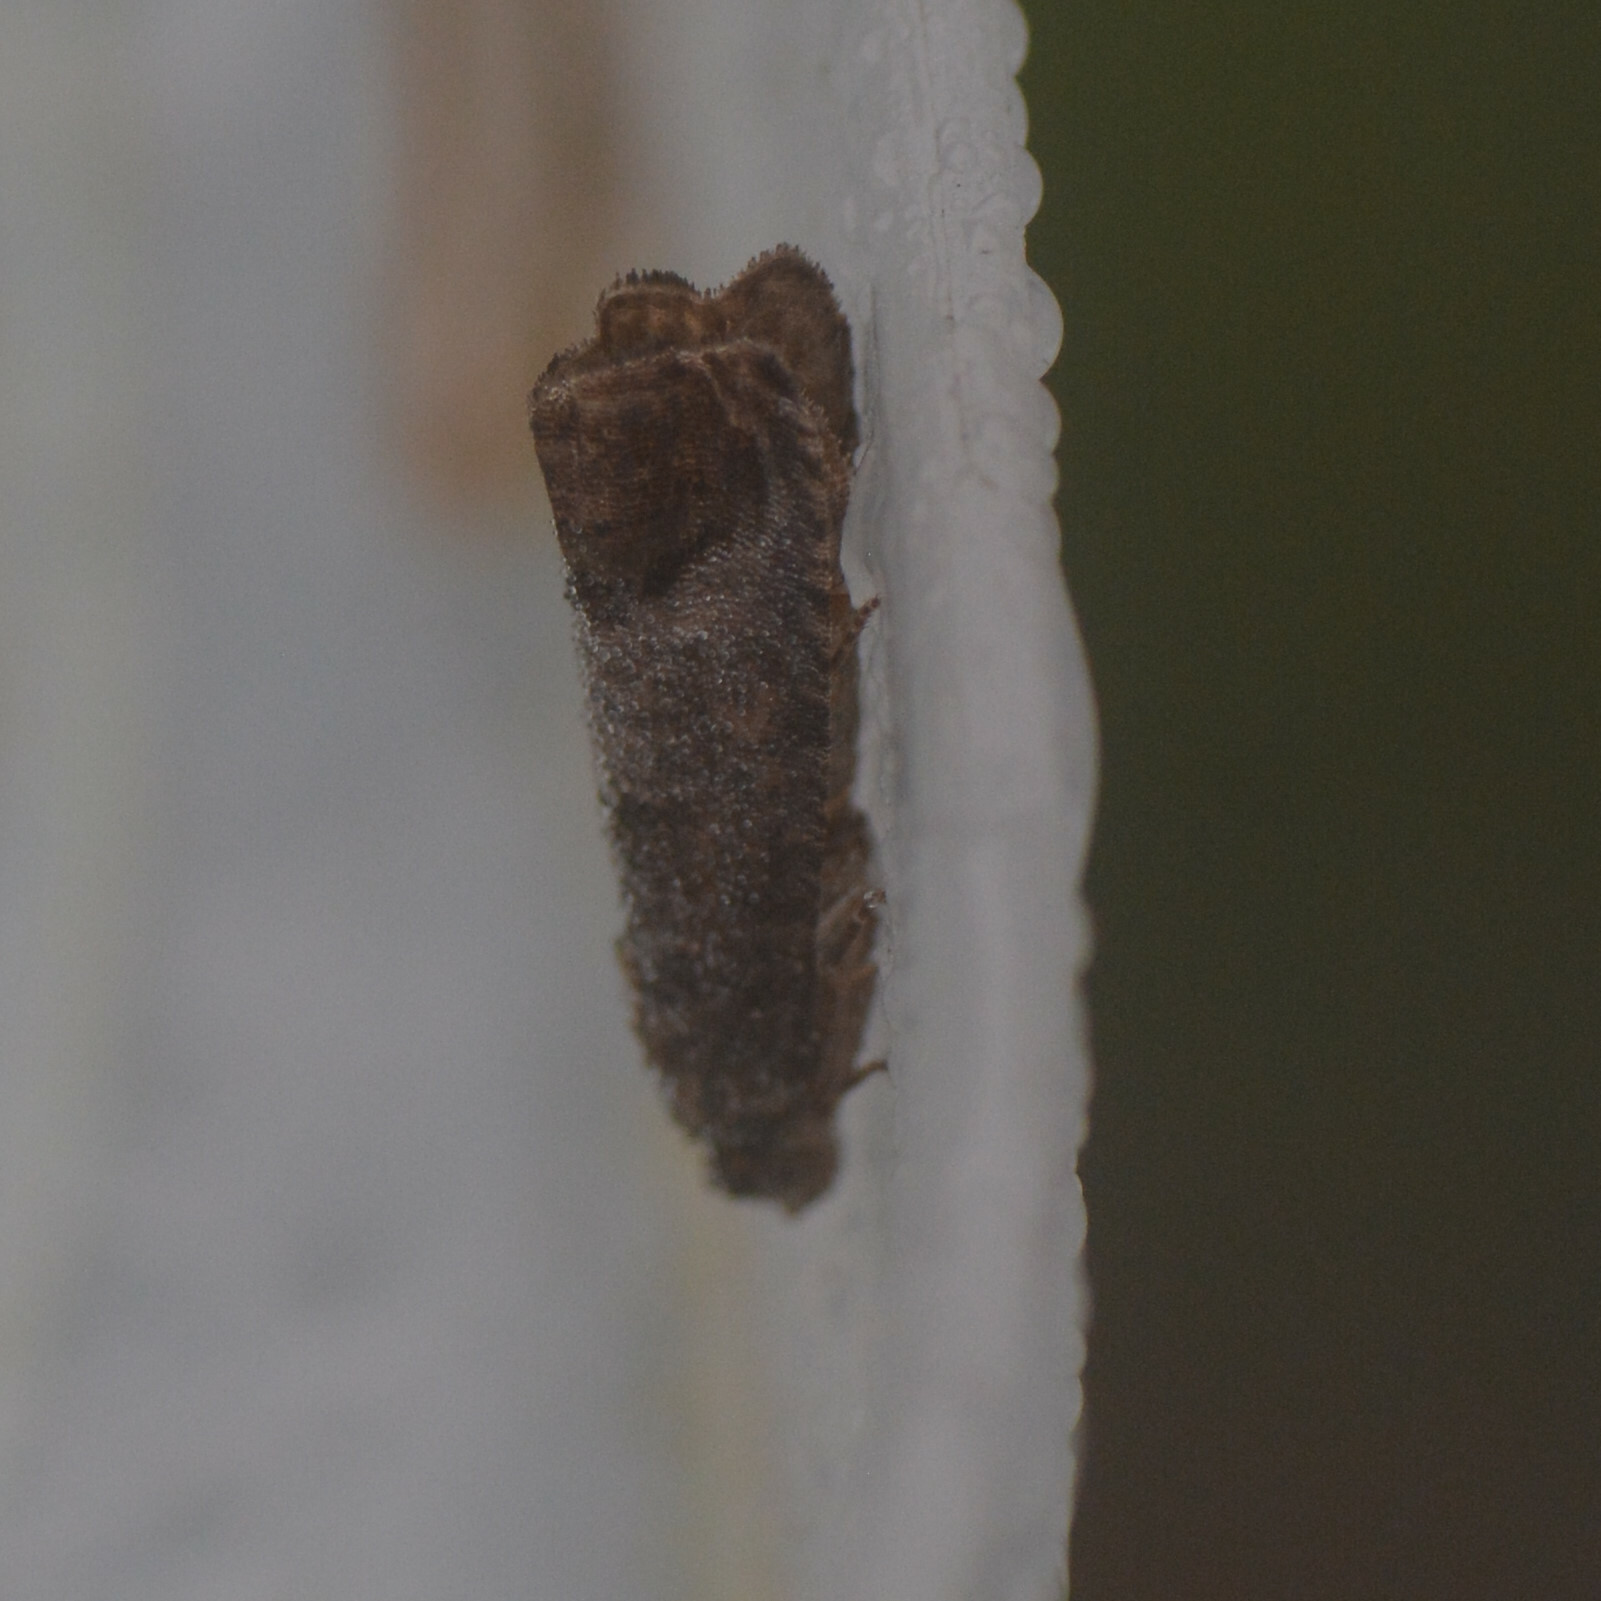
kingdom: Animalia
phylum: Arthropoda
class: Insecta
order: Lepidoptera
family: Tortricidae
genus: Cydia
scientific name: Cydia pomonella
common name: Codling moth
